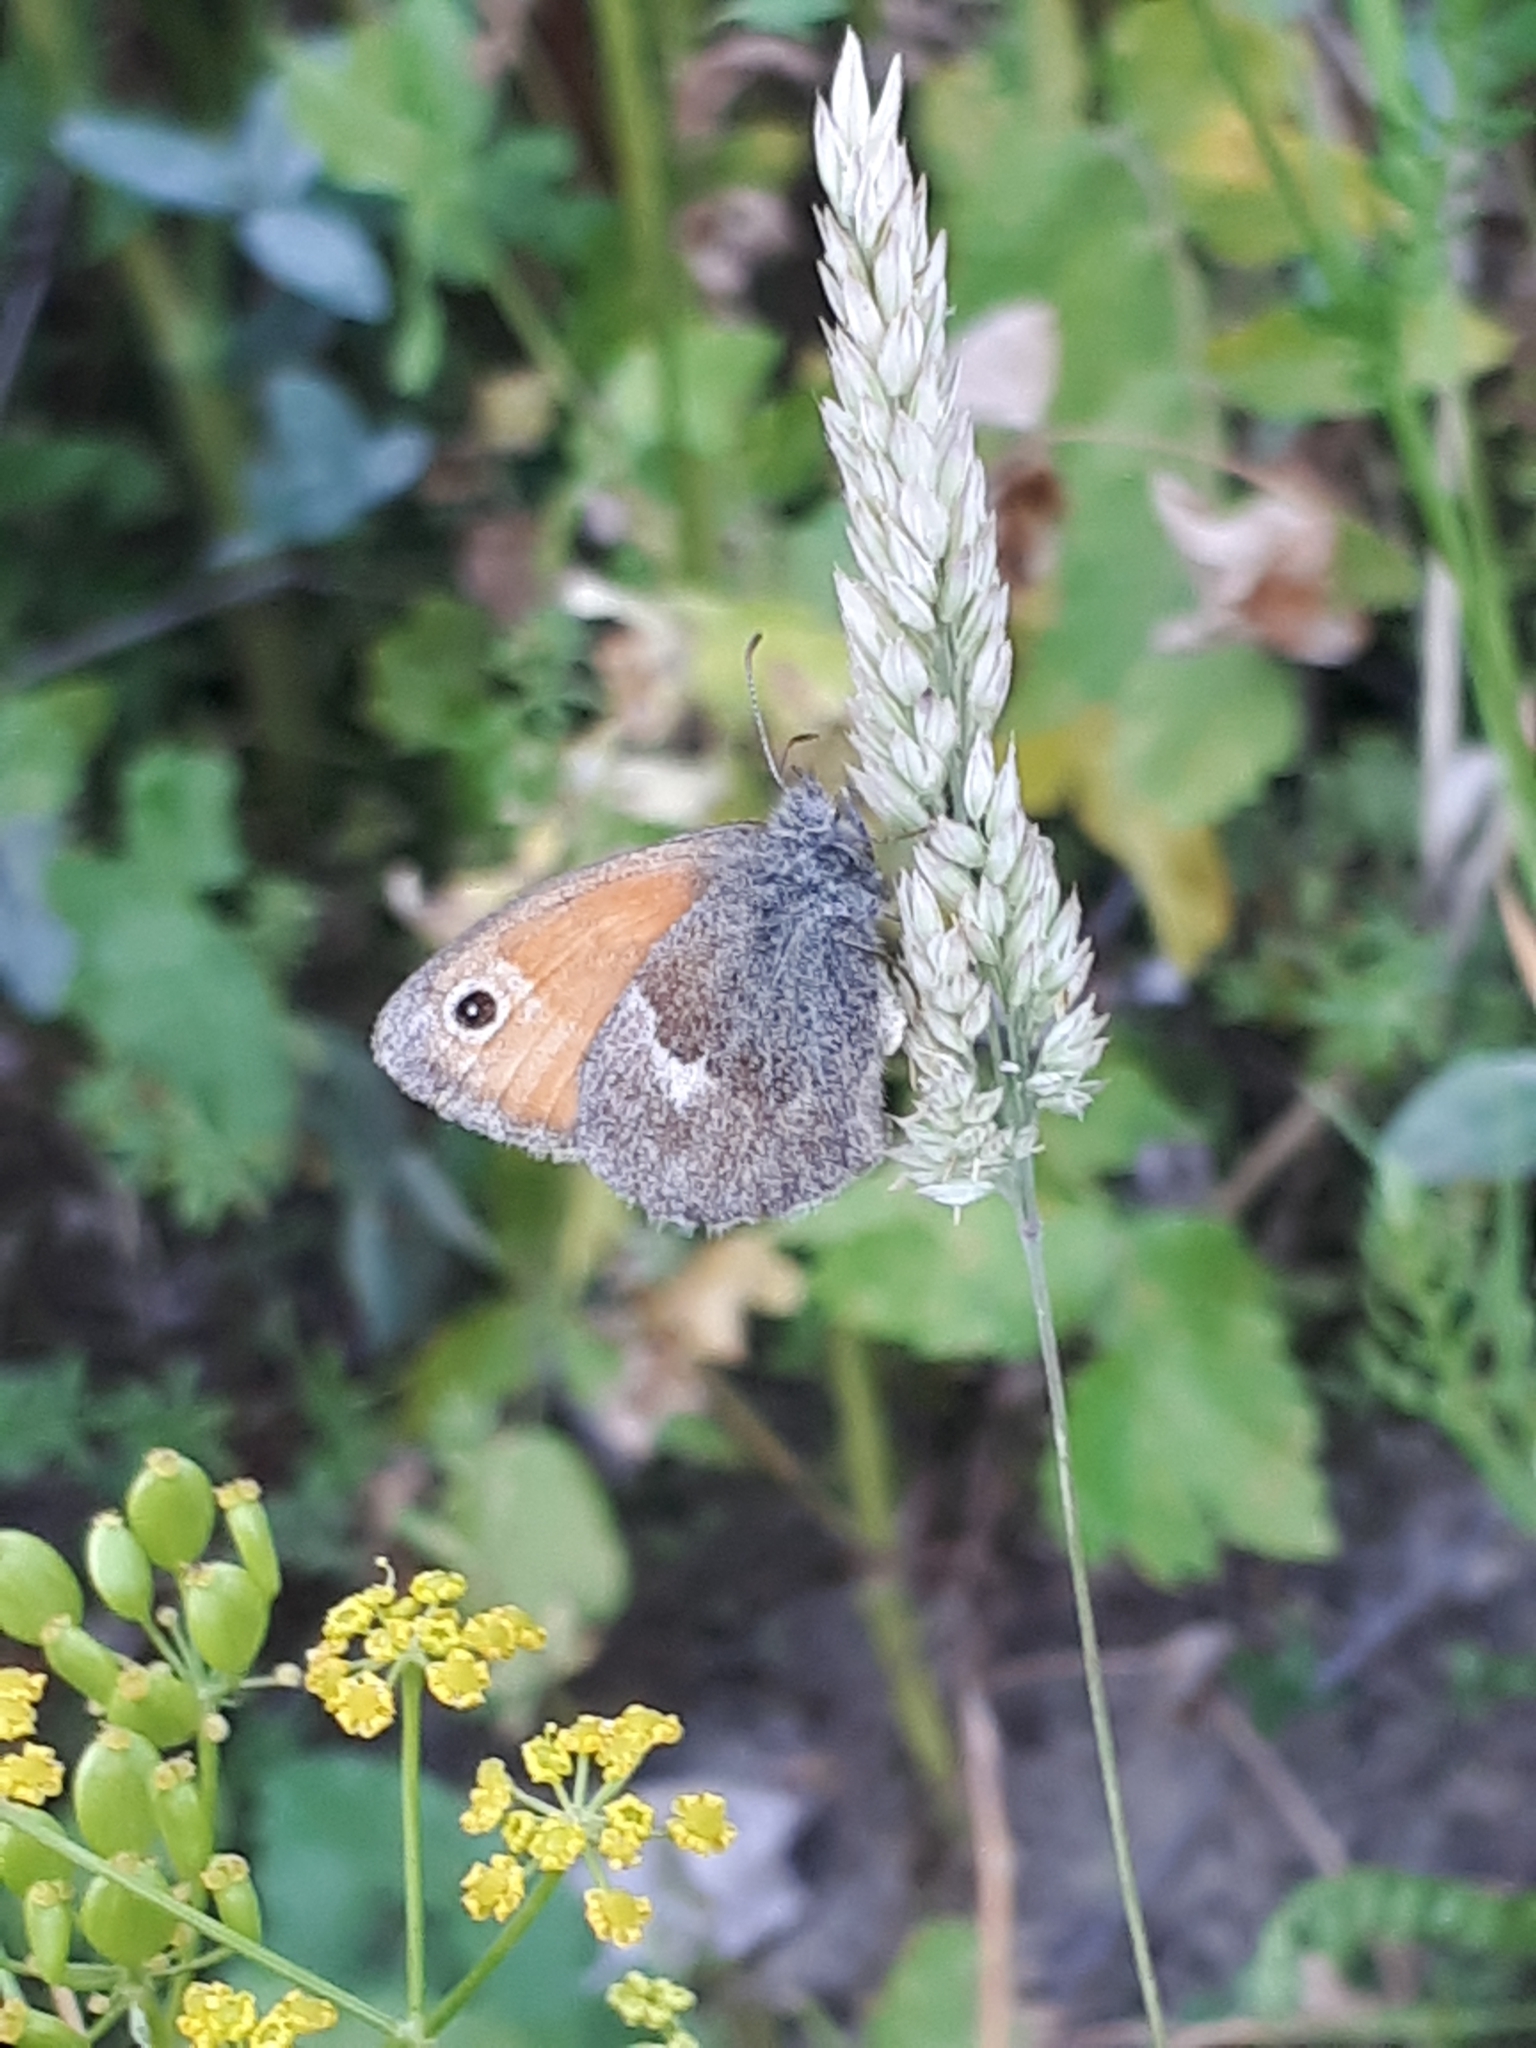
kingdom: Animalia
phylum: Arthropoda
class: Insecta
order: Lepidoptera
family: Nymphalidae
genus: Coenonympha
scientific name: Coenonympha pamphilus
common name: Small heath
